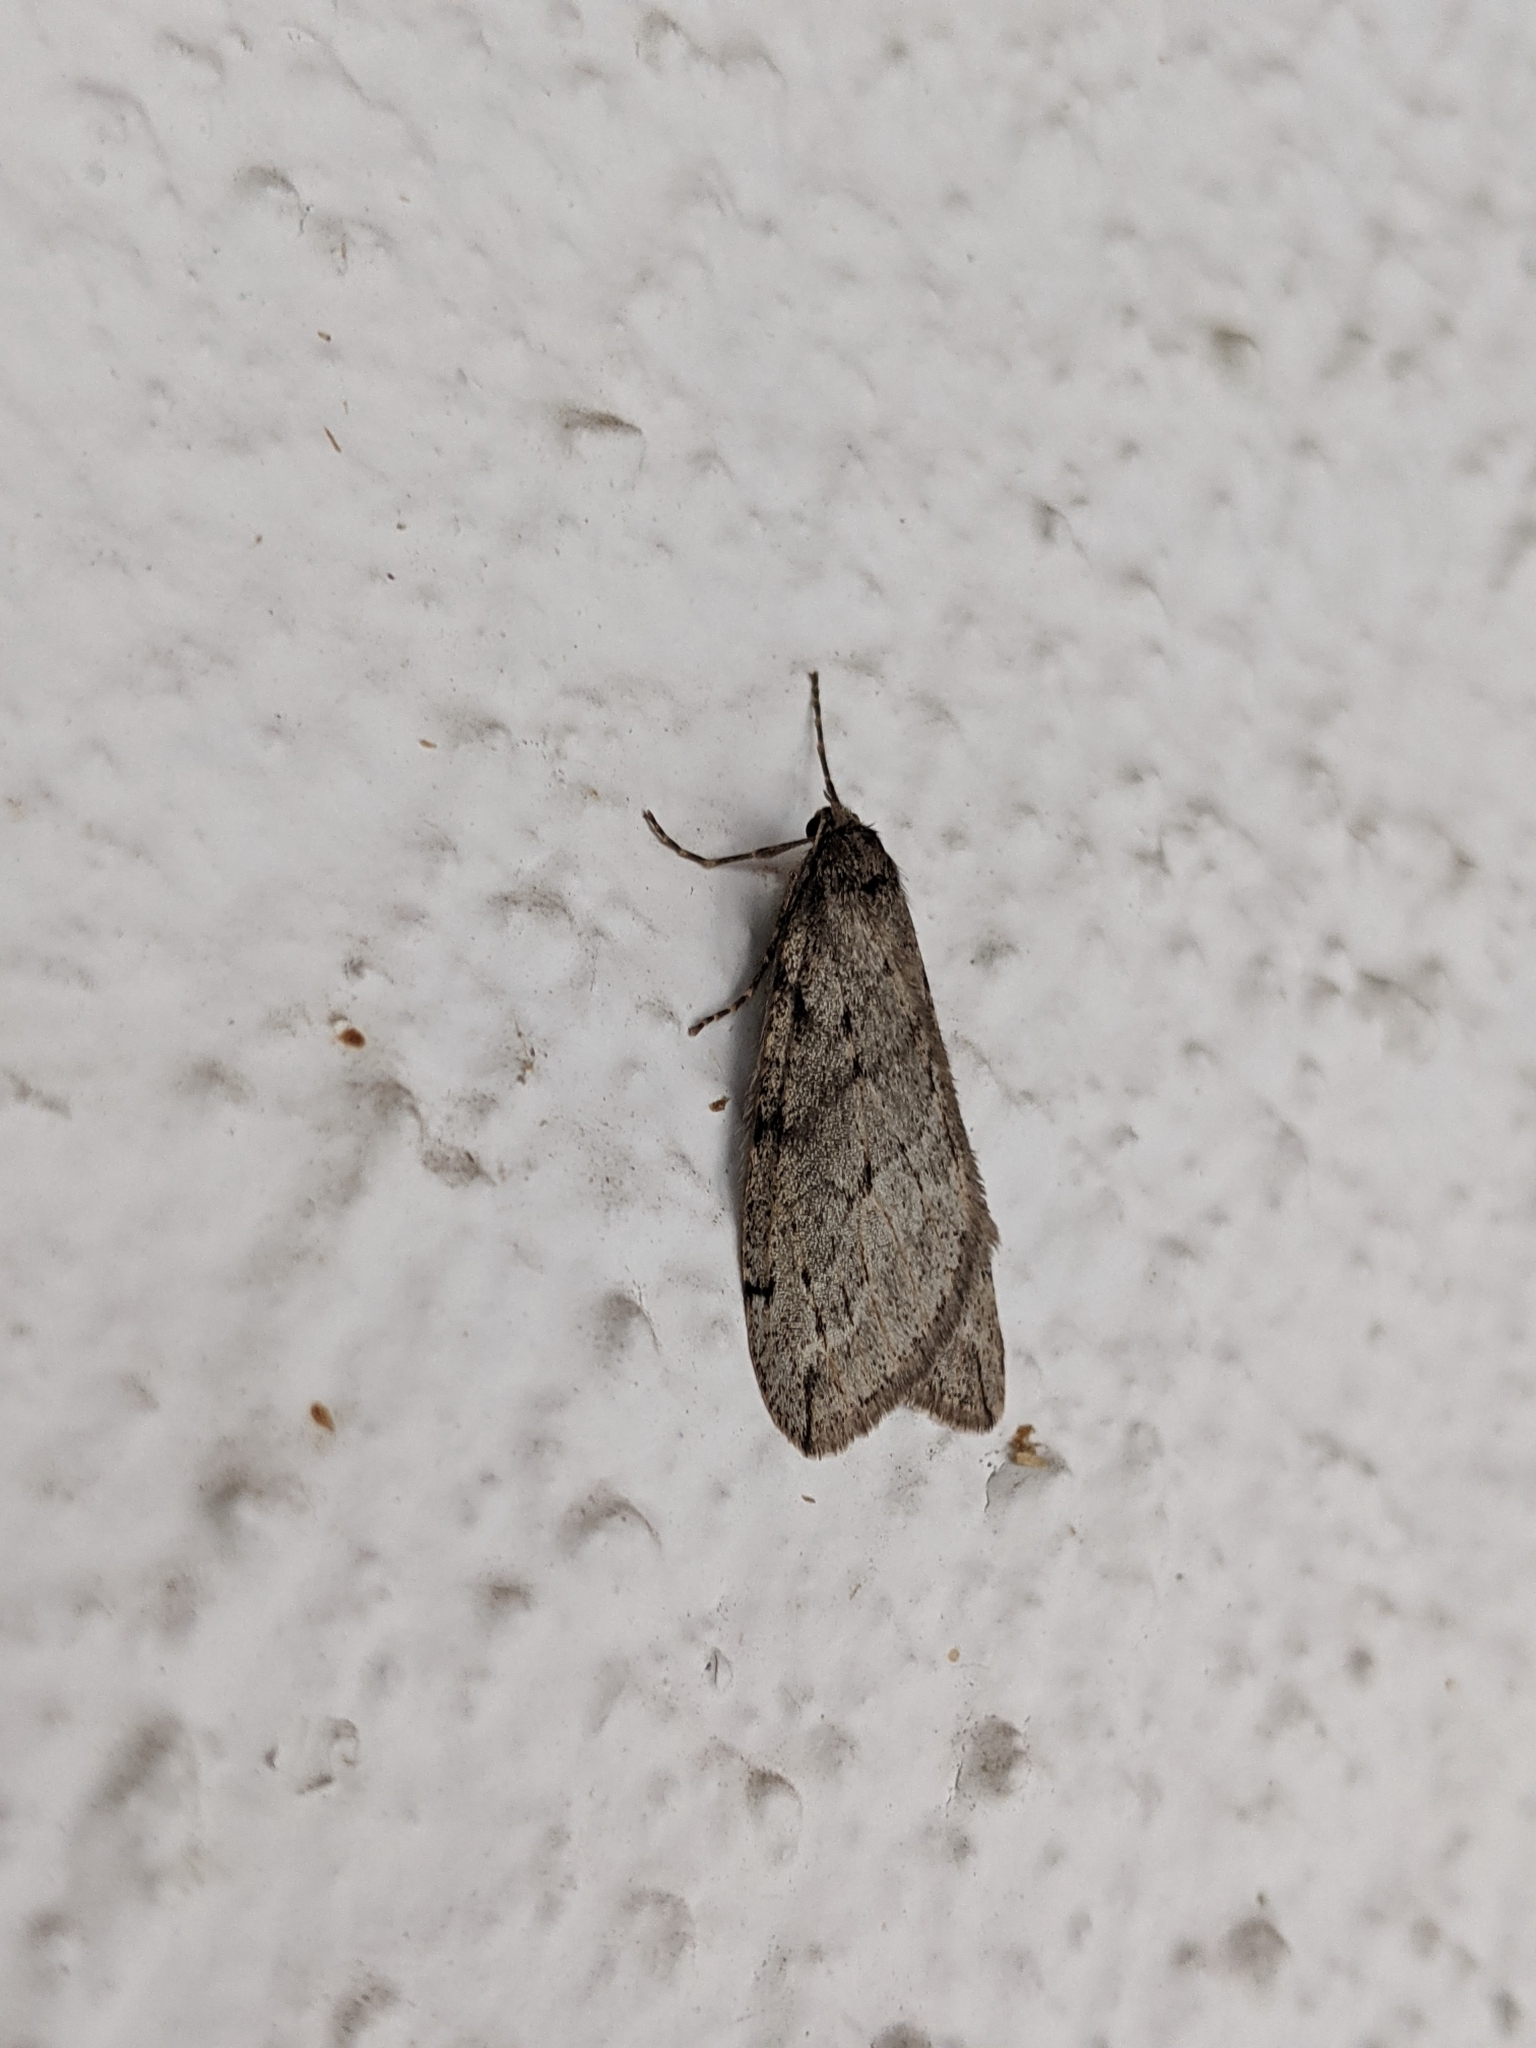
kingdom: Animalia
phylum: Arthropoda
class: Insecta
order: Lepidoptera
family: Geometridae
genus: Paleacrita
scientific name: Paleacrita vernata
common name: Spring cankerworm
